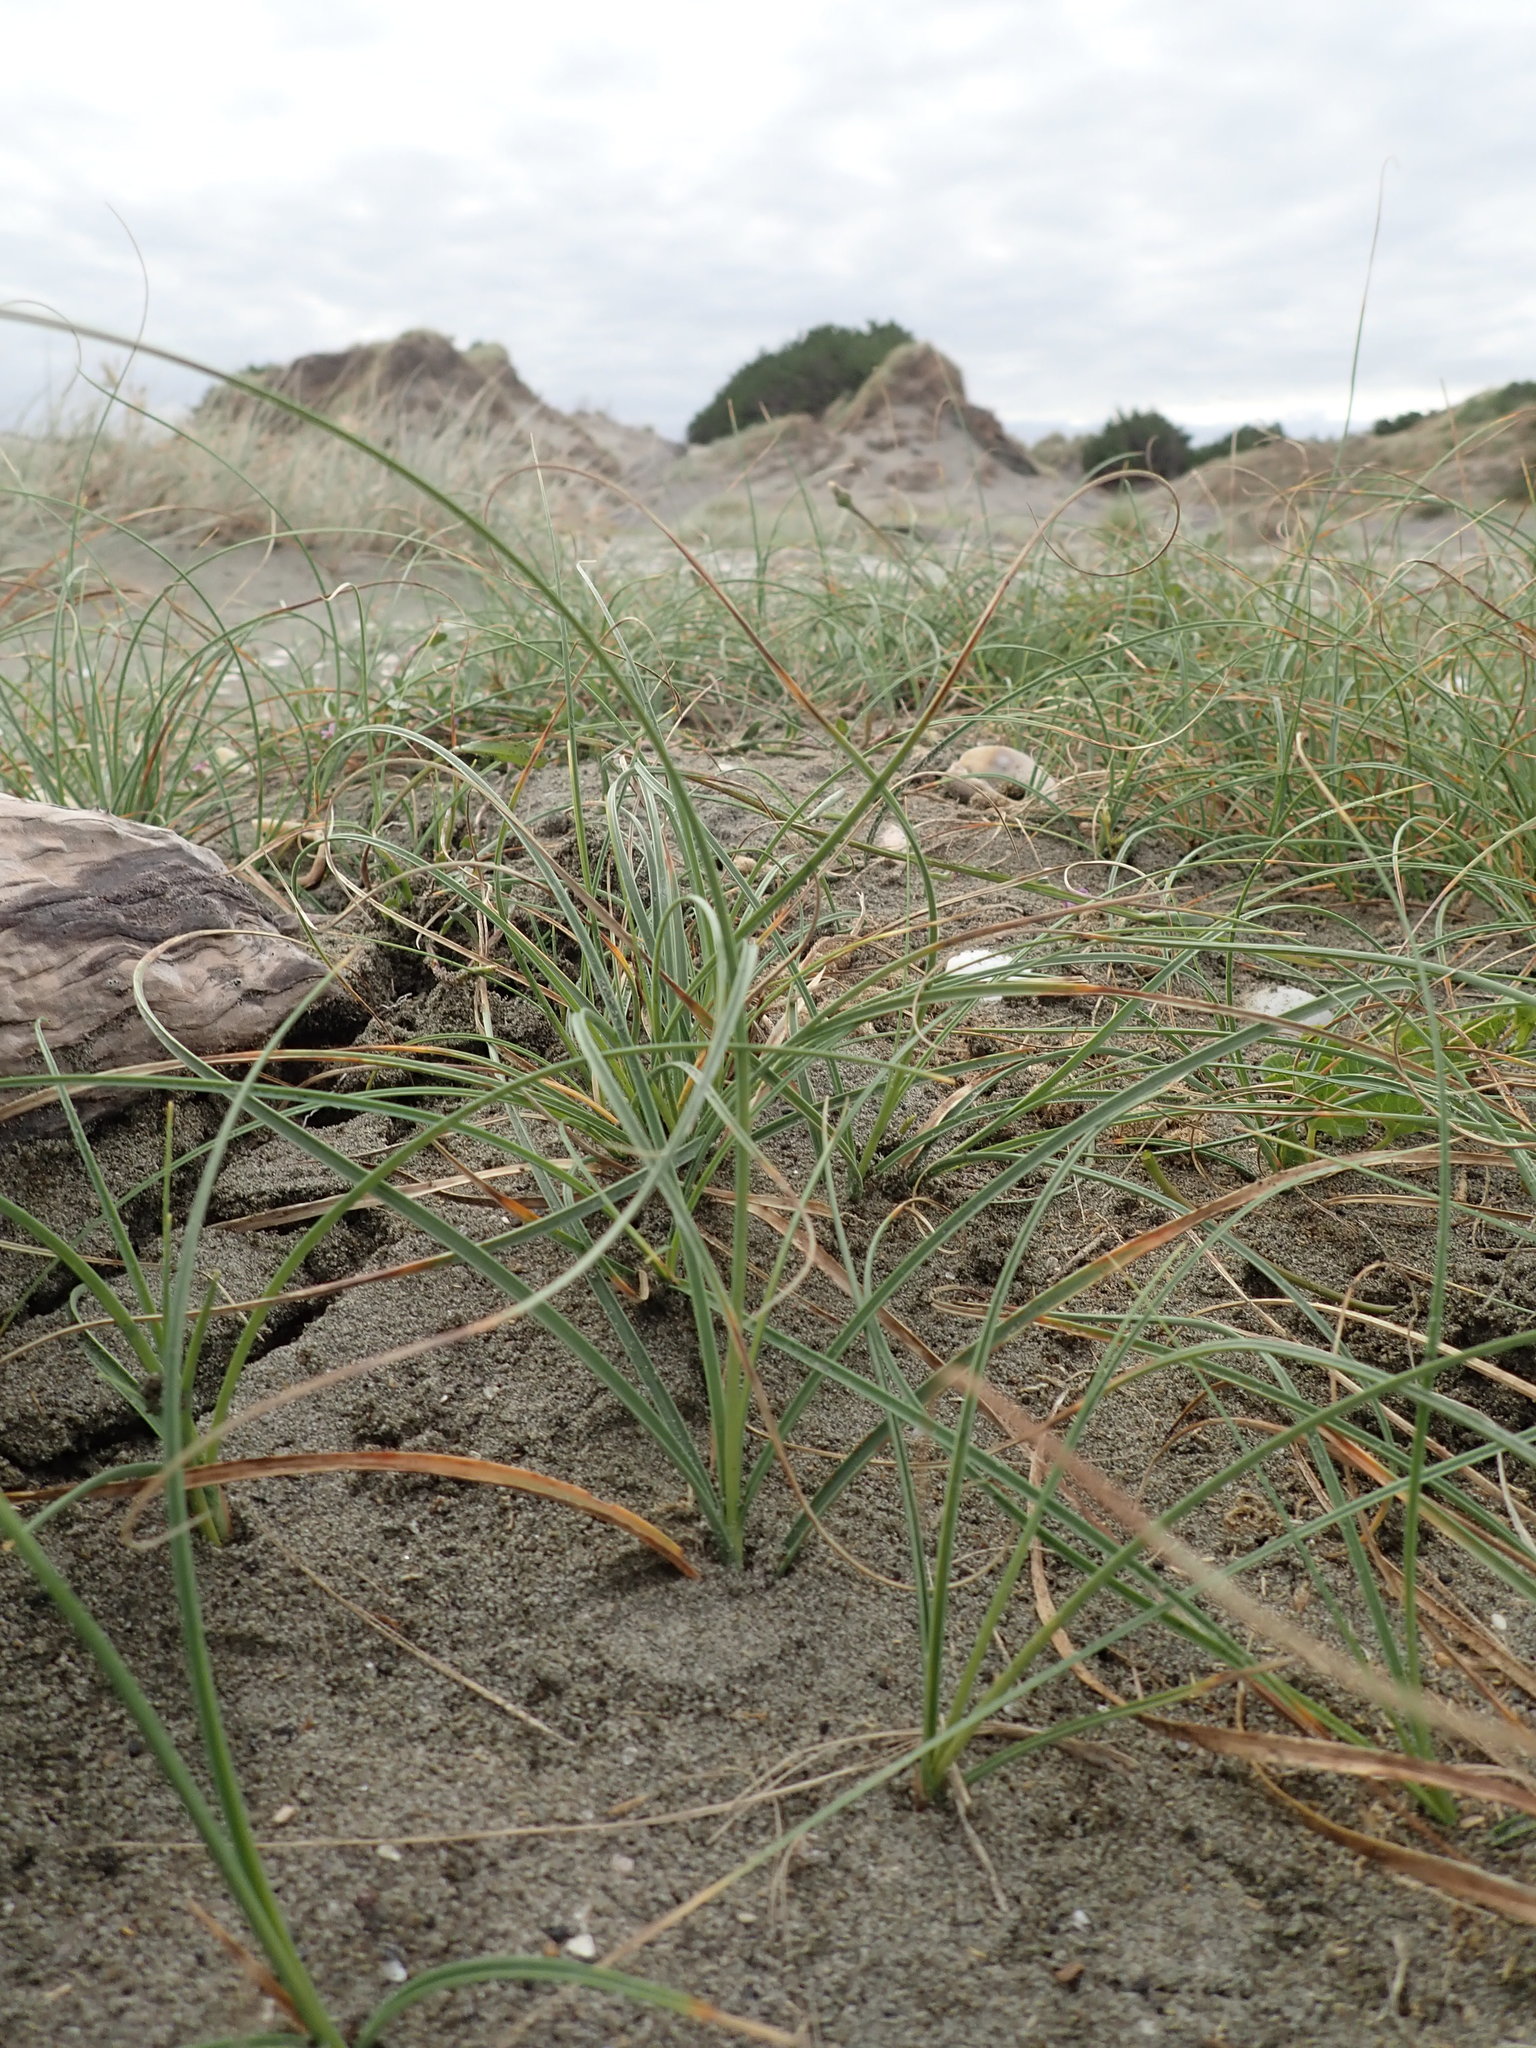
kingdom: Plantae
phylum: Tracheophyta
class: Liliopsida
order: Poales
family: Cyperaceae
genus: Carex
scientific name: Carex pumila
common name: Dwarf sedge
